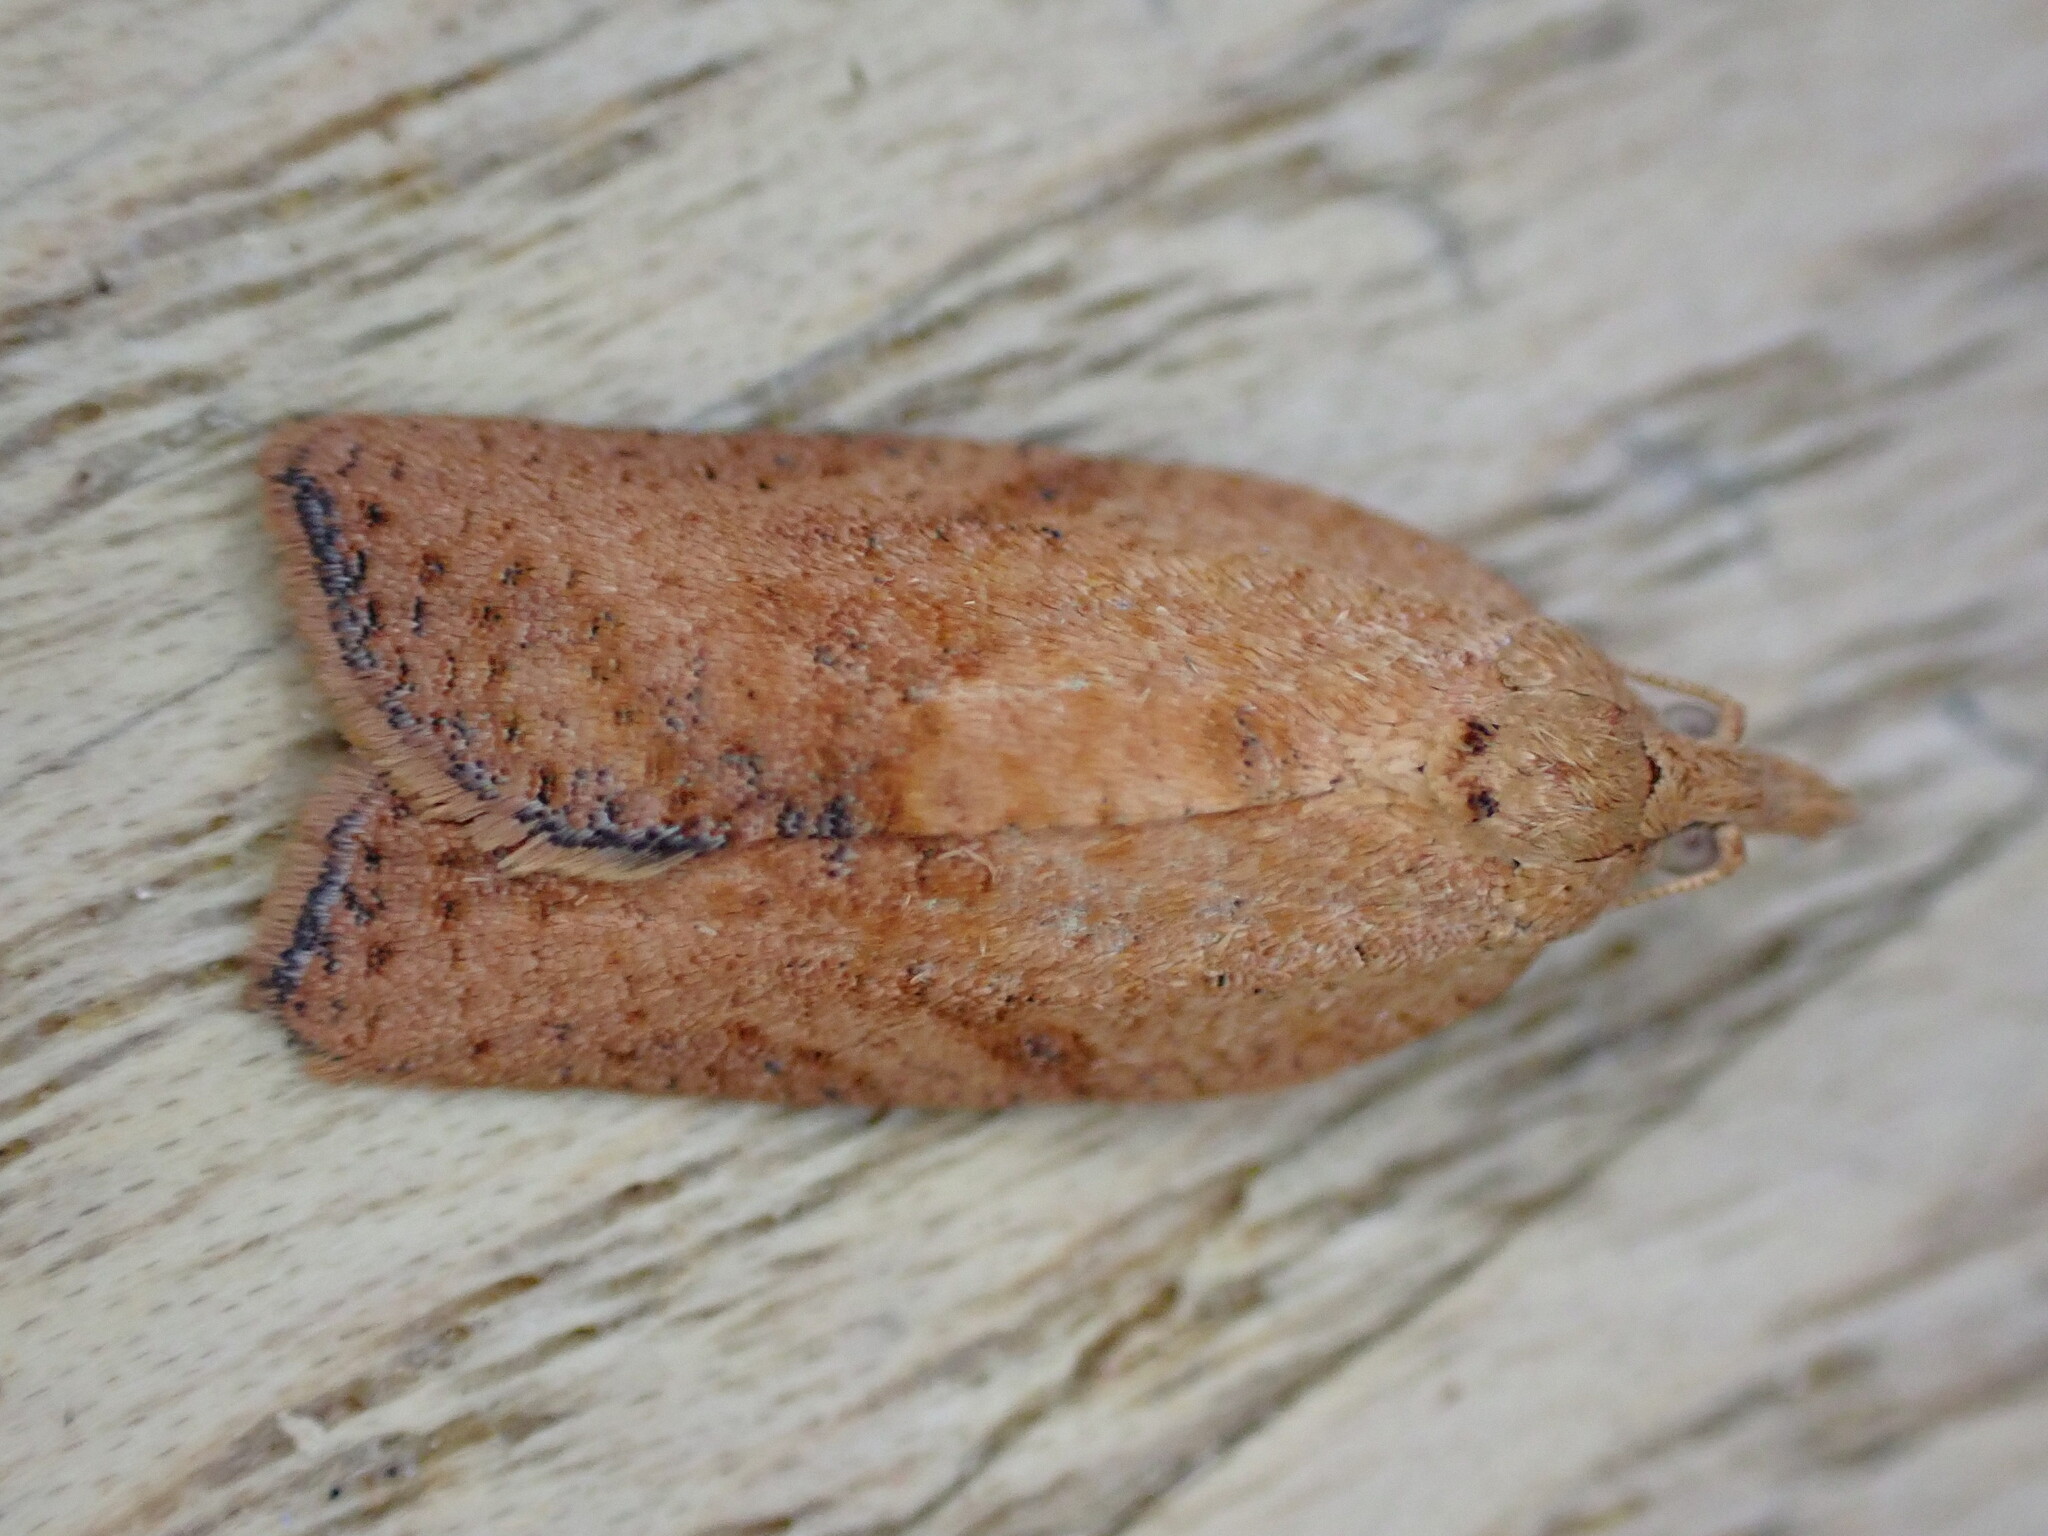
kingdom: Animalia
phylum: Arthropoda
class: Insecta
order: Lepidoptera
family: Tortricidae
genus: Epiphyas
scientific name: Epiphyas postvittana
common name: Light brown apple moth
